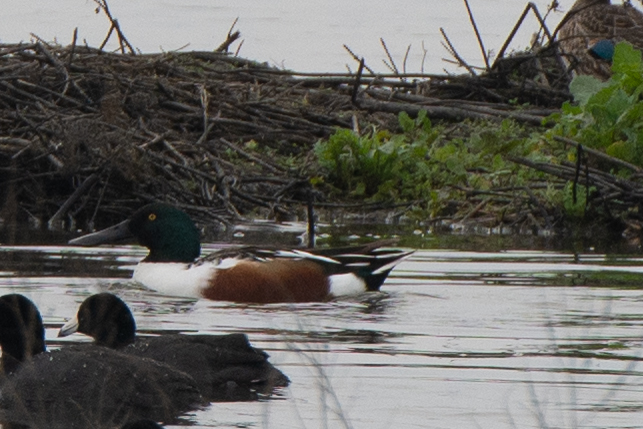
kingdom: Animalia
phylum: Chordata
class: Aves
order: Anseriformes
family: Anatidae
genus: Spatula
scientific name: Spatula clypeata
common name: Northern shoveler
